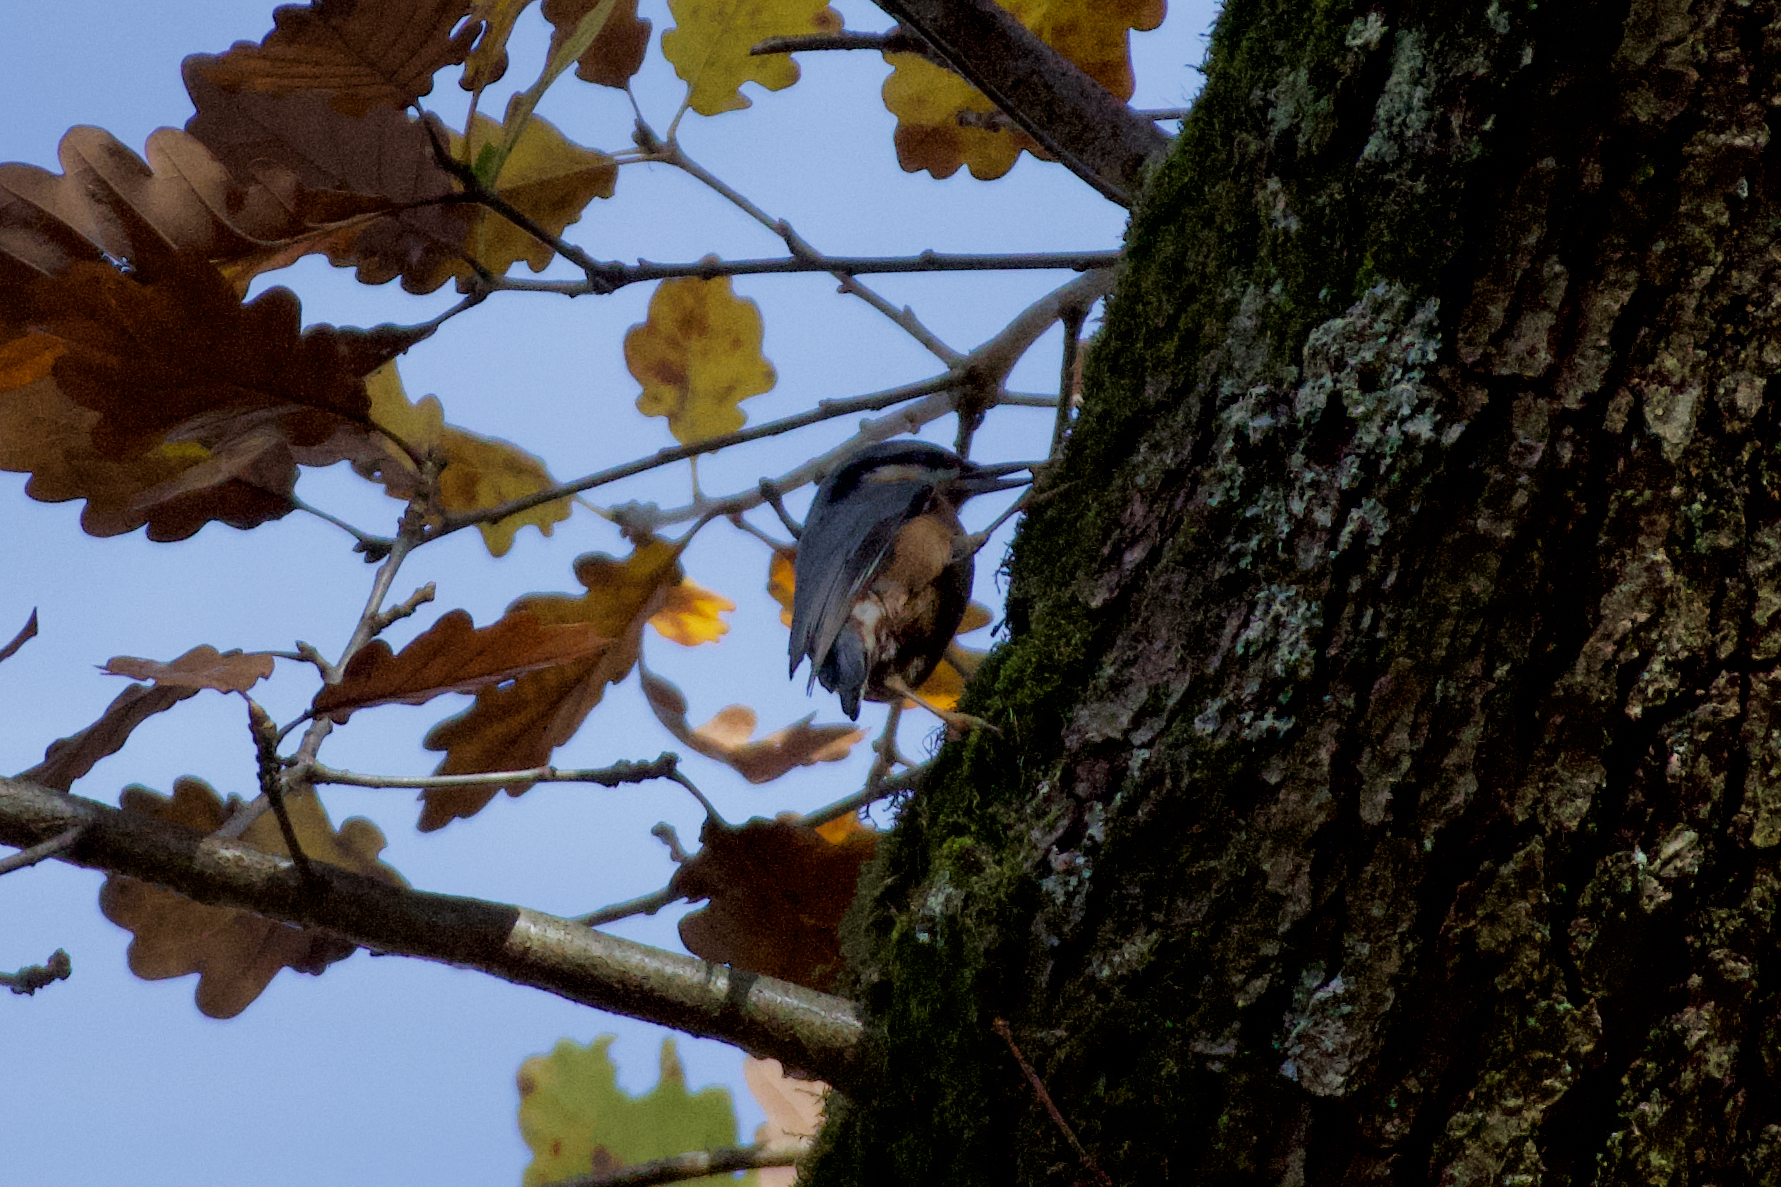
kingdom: Animalia
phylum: Chordata
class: Aves
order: Passeriformes
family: Sittidae
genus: Sitta
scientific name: Sitta europaea
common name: Eurasian nuthatch
